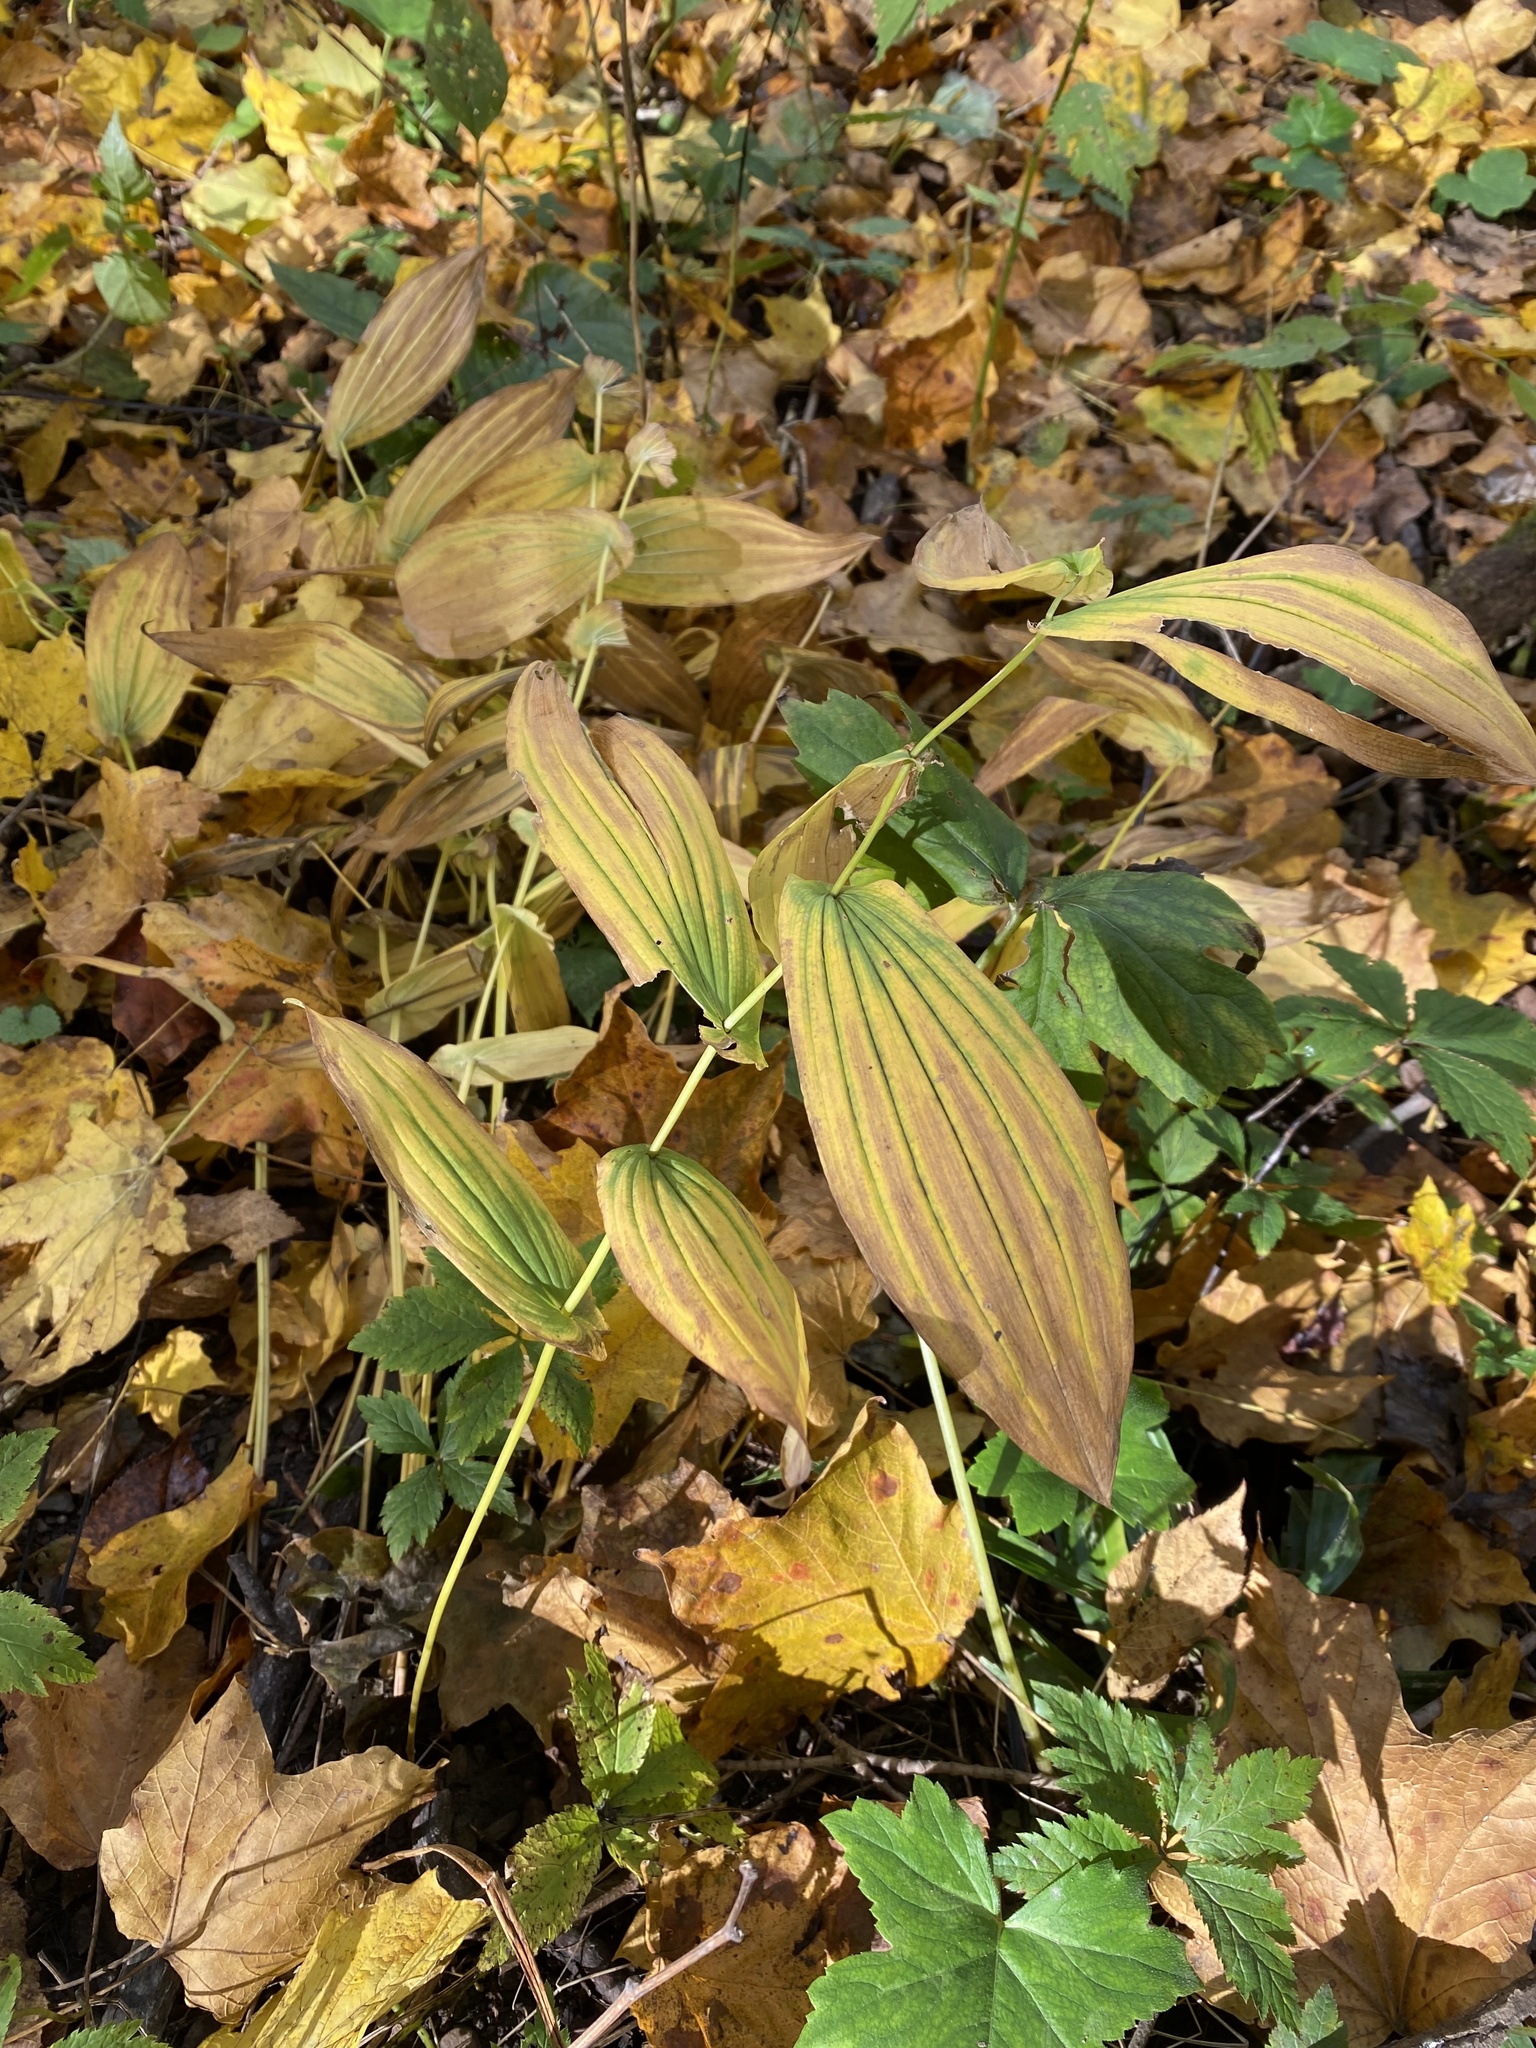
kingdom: Plantae
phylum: Tracheophyta
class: Liliopsida
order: Liliales
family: Colchicaceae
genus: Uvularia
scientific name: Uvularia grandiflora
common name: Bellwort
